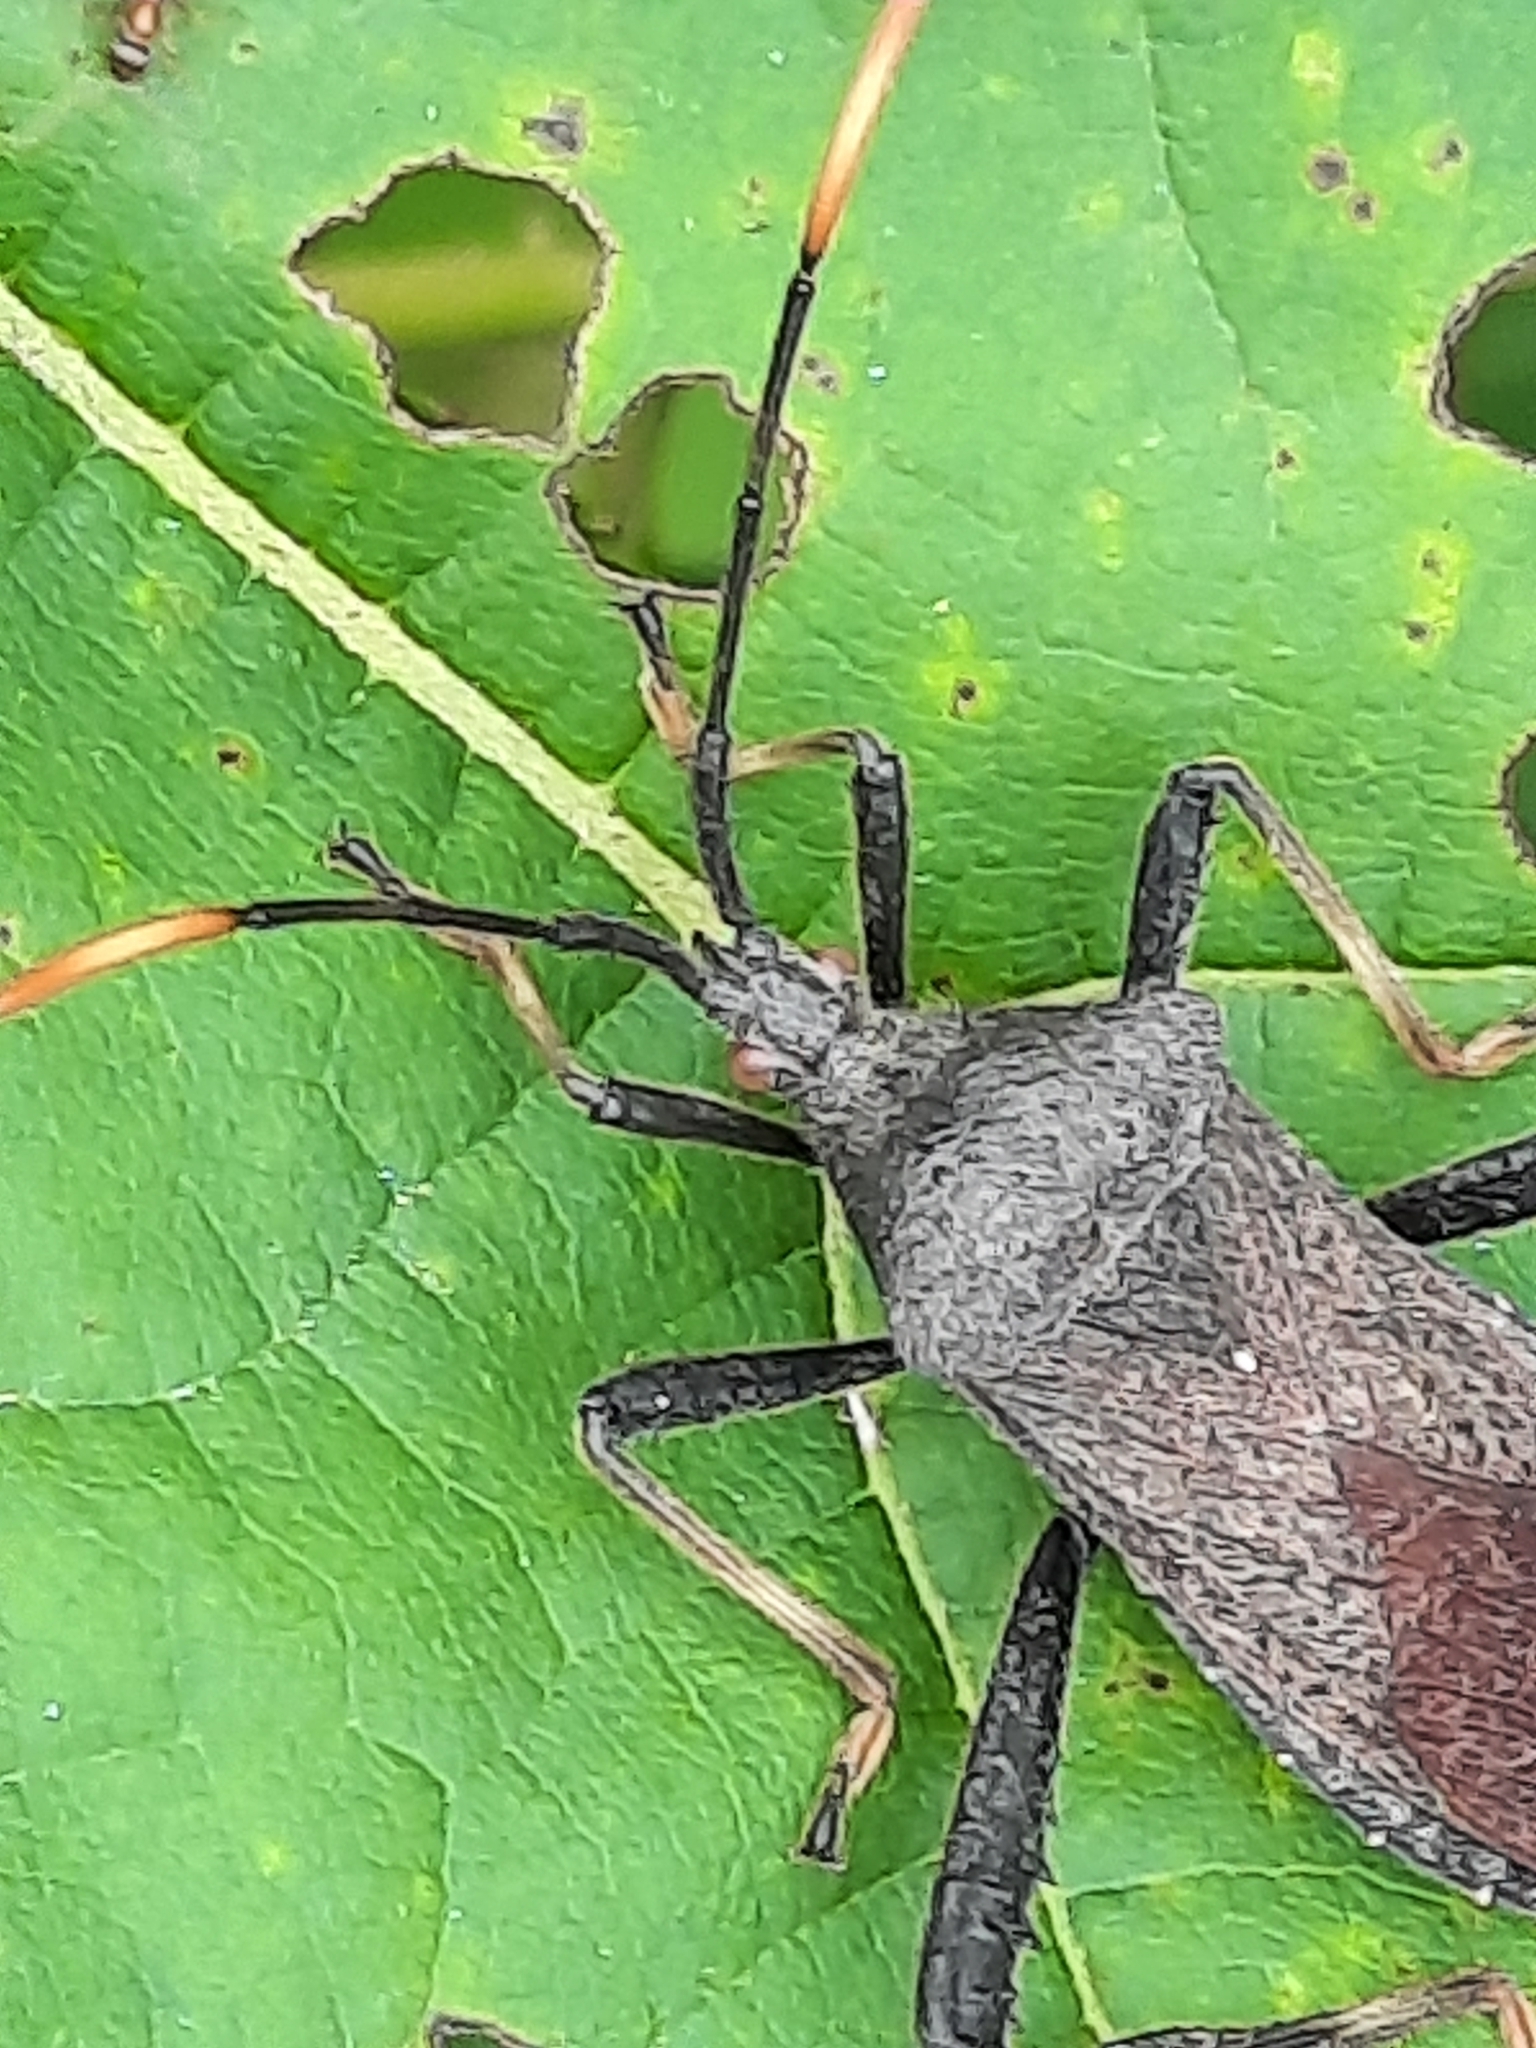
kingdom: Animalia
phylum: Arthropoda
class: Insecta
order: Hemiptera
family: Coreidae
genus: Acanthocephala
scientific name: Acanthocephala terminalis
